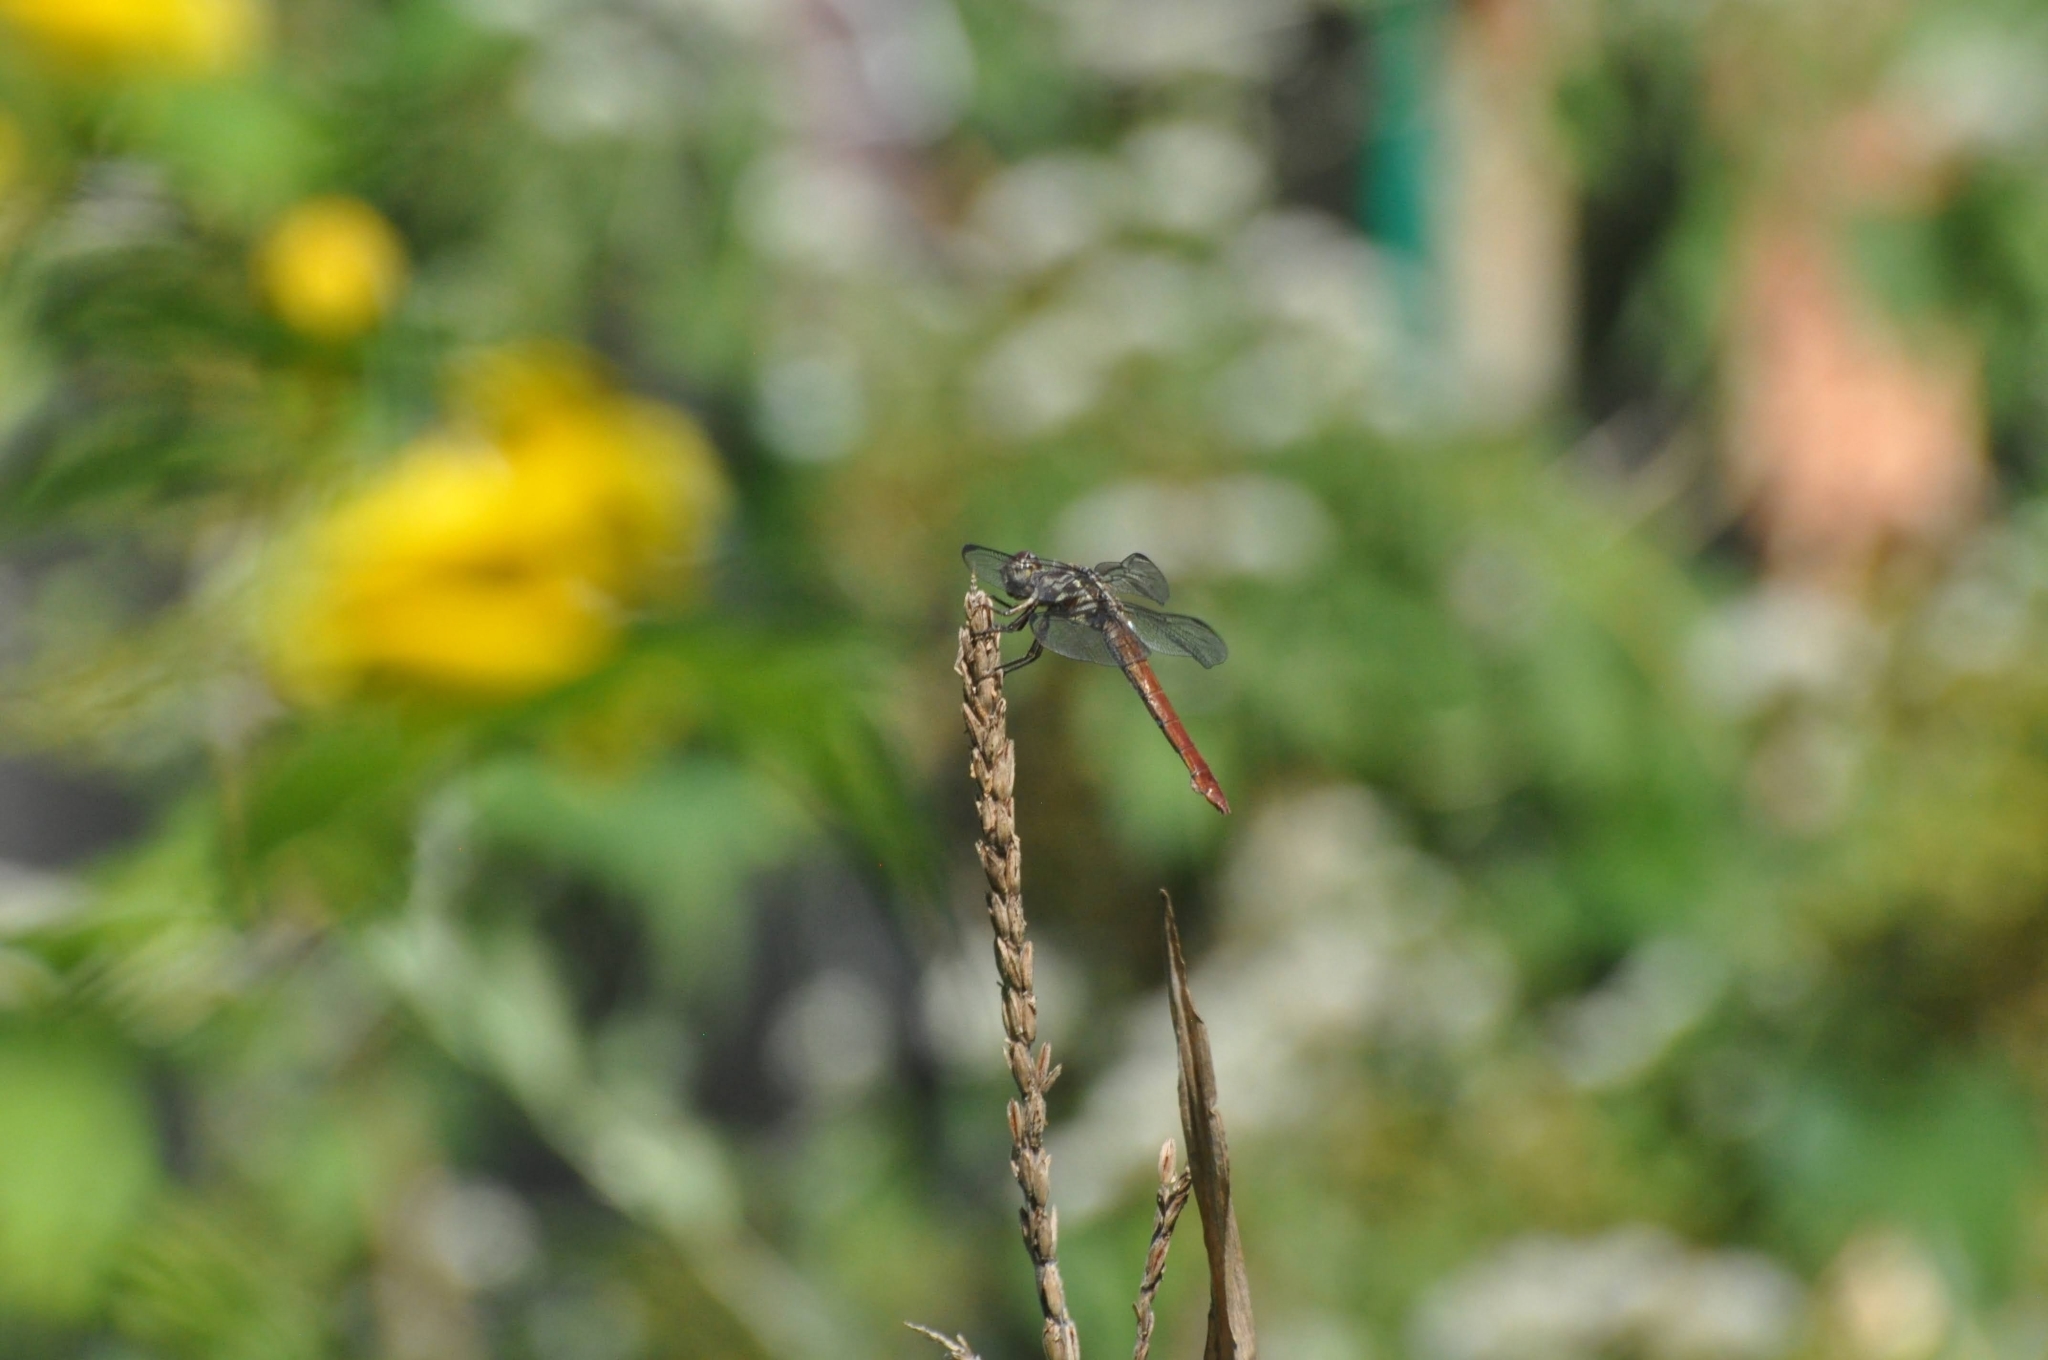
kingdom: Animalia
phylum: Arthropoda
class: Insecta
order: Odonata
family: Libellulidae
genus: Orthemis
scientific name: Orthemis ferruginea
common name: Roseate skimmer
